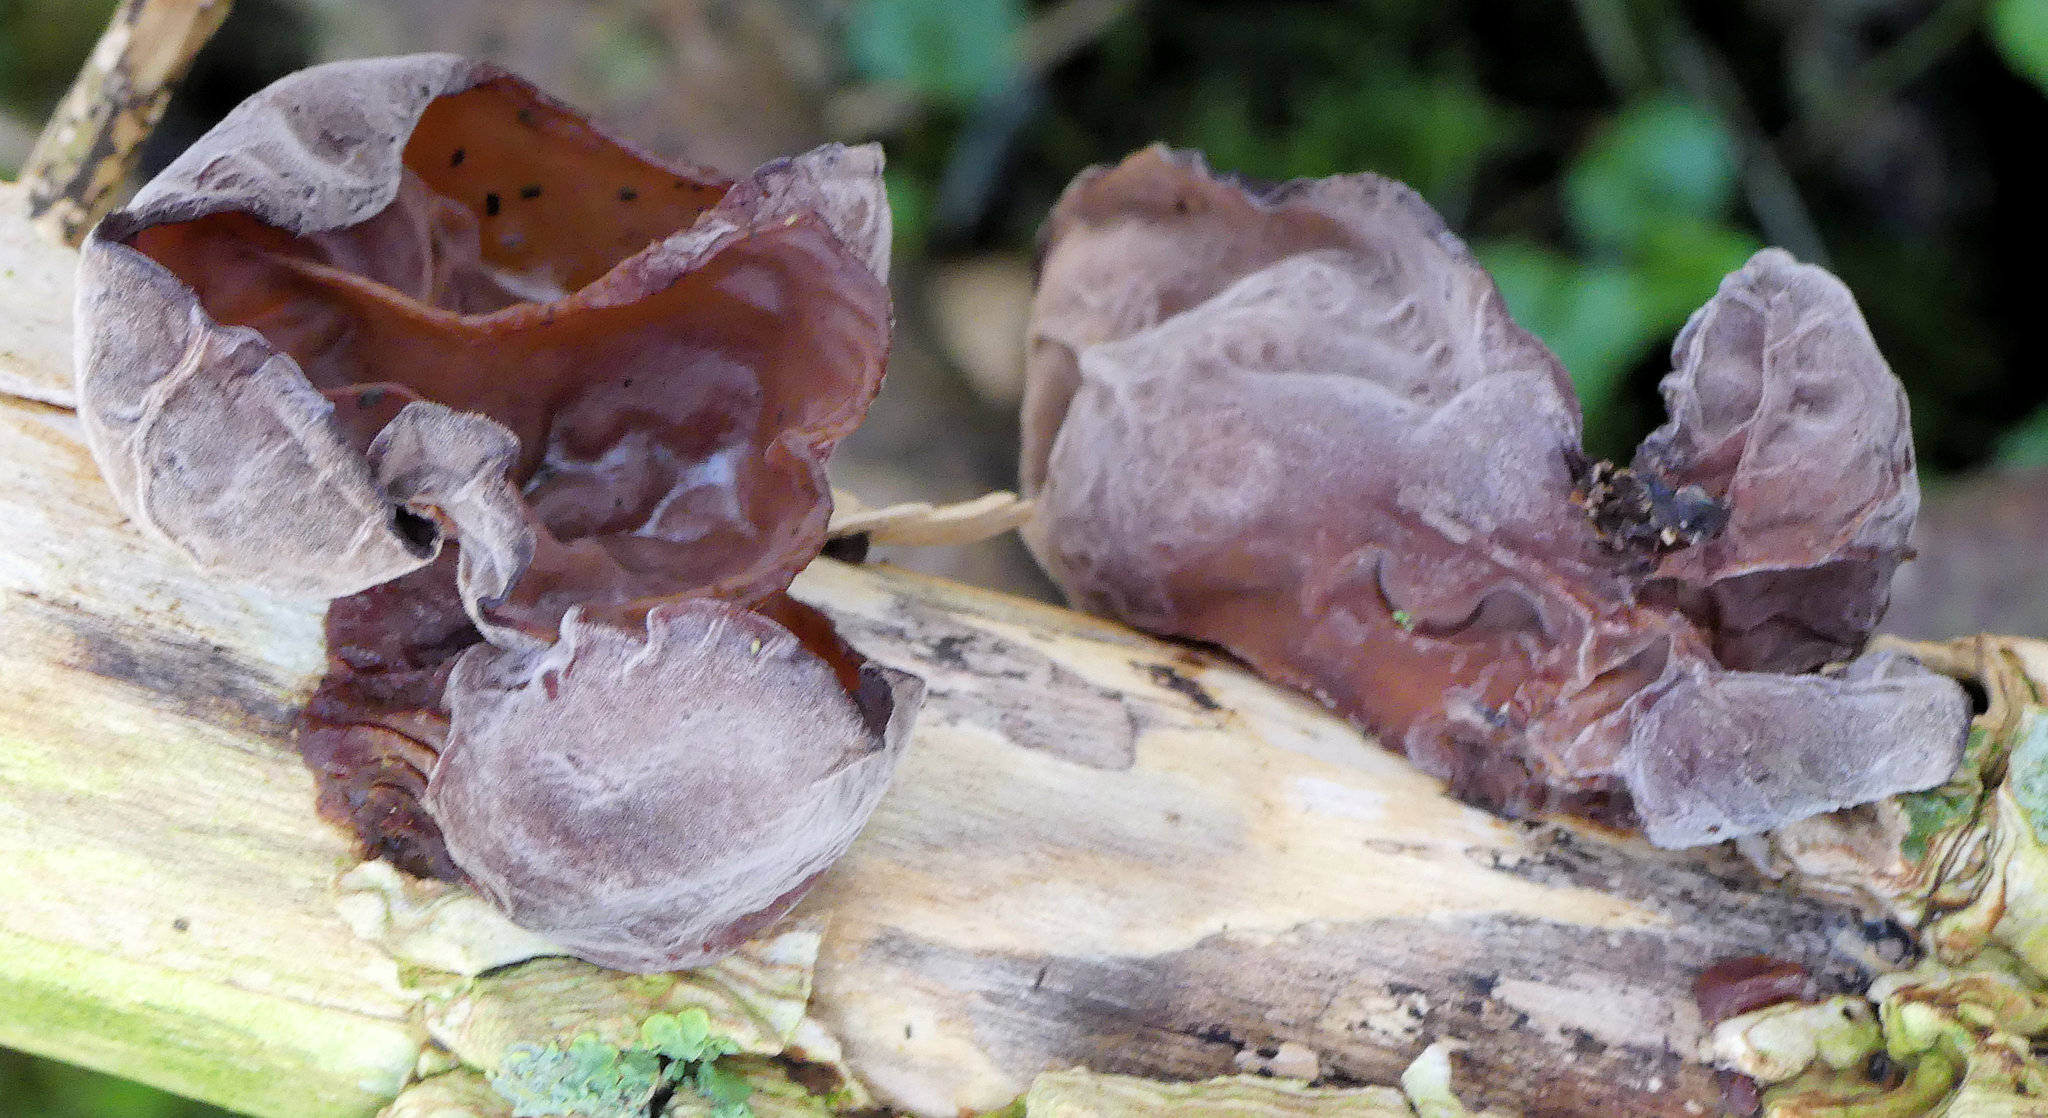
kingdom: Fungi
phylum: Basidiomycota
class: Agaricomycetes
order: Auriculariales
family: Auriculariaceae
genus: Auricularia
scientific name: Auricularia auricula-judae
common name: Jelly ear
